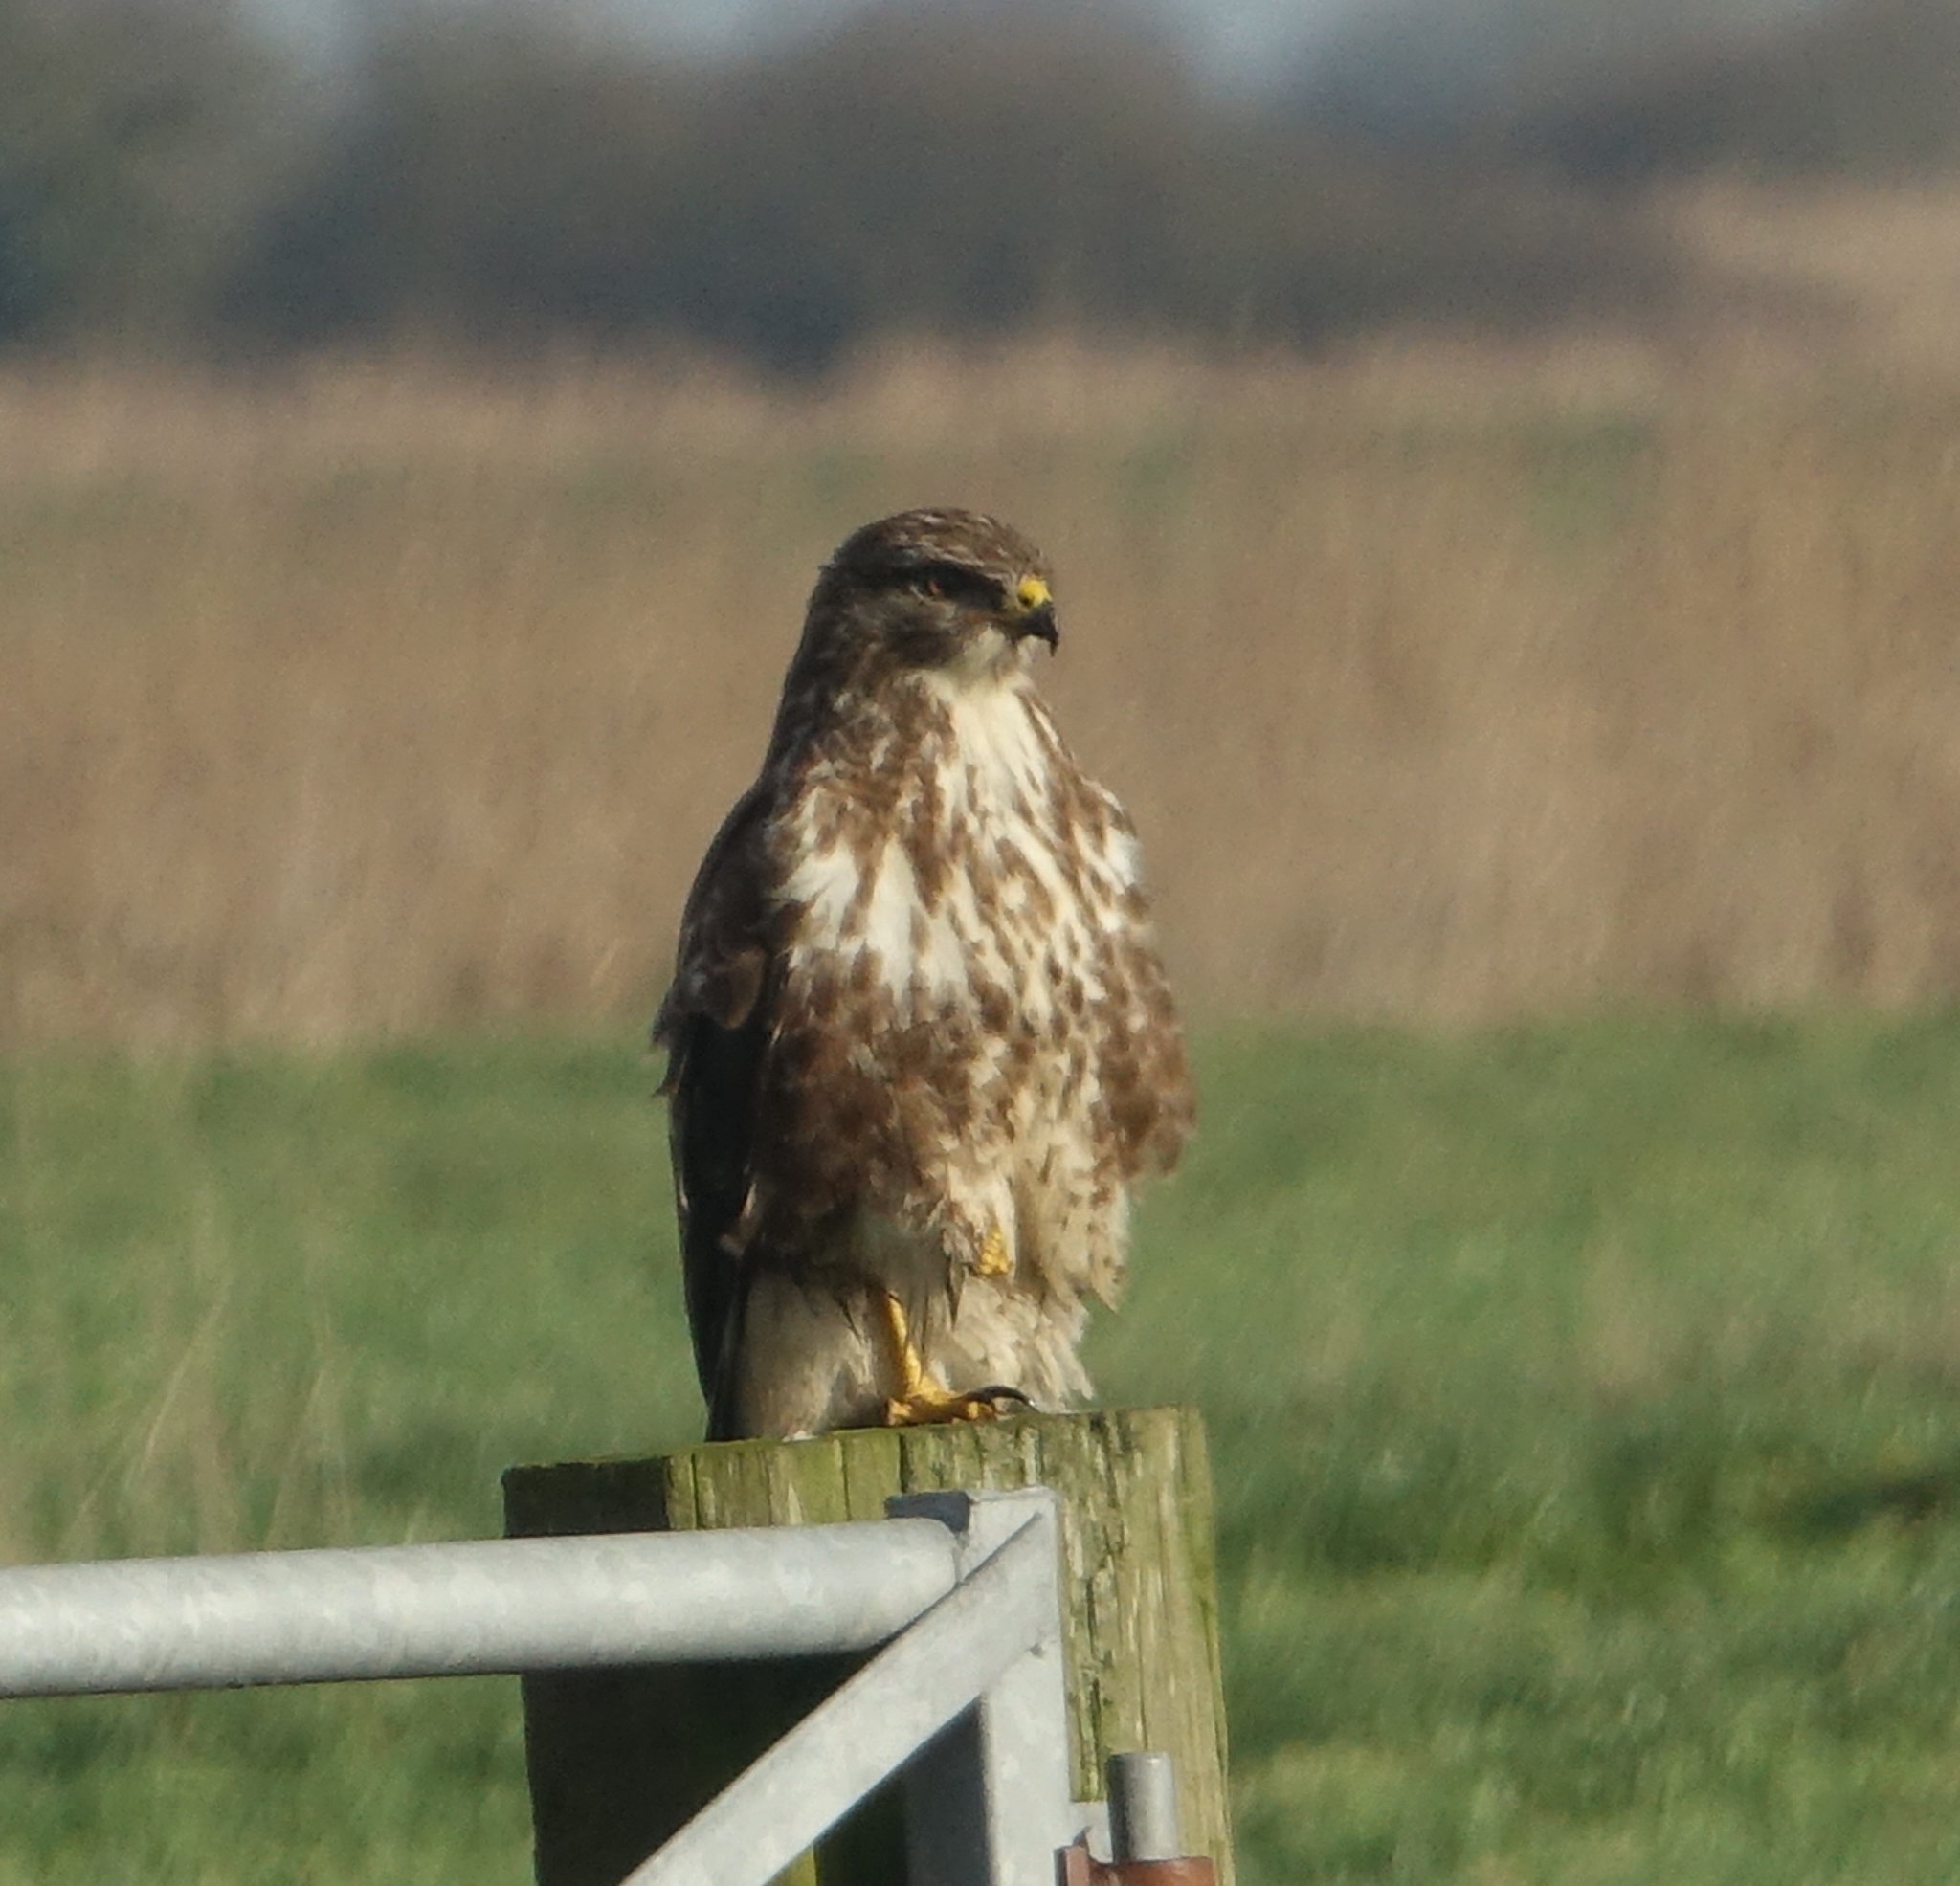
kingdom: Animalia
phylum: Chordata
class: Aves
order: Accipitriformes
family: Accipitridae
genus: Buteo
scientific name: Buteo buteo
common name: Common buzzard
